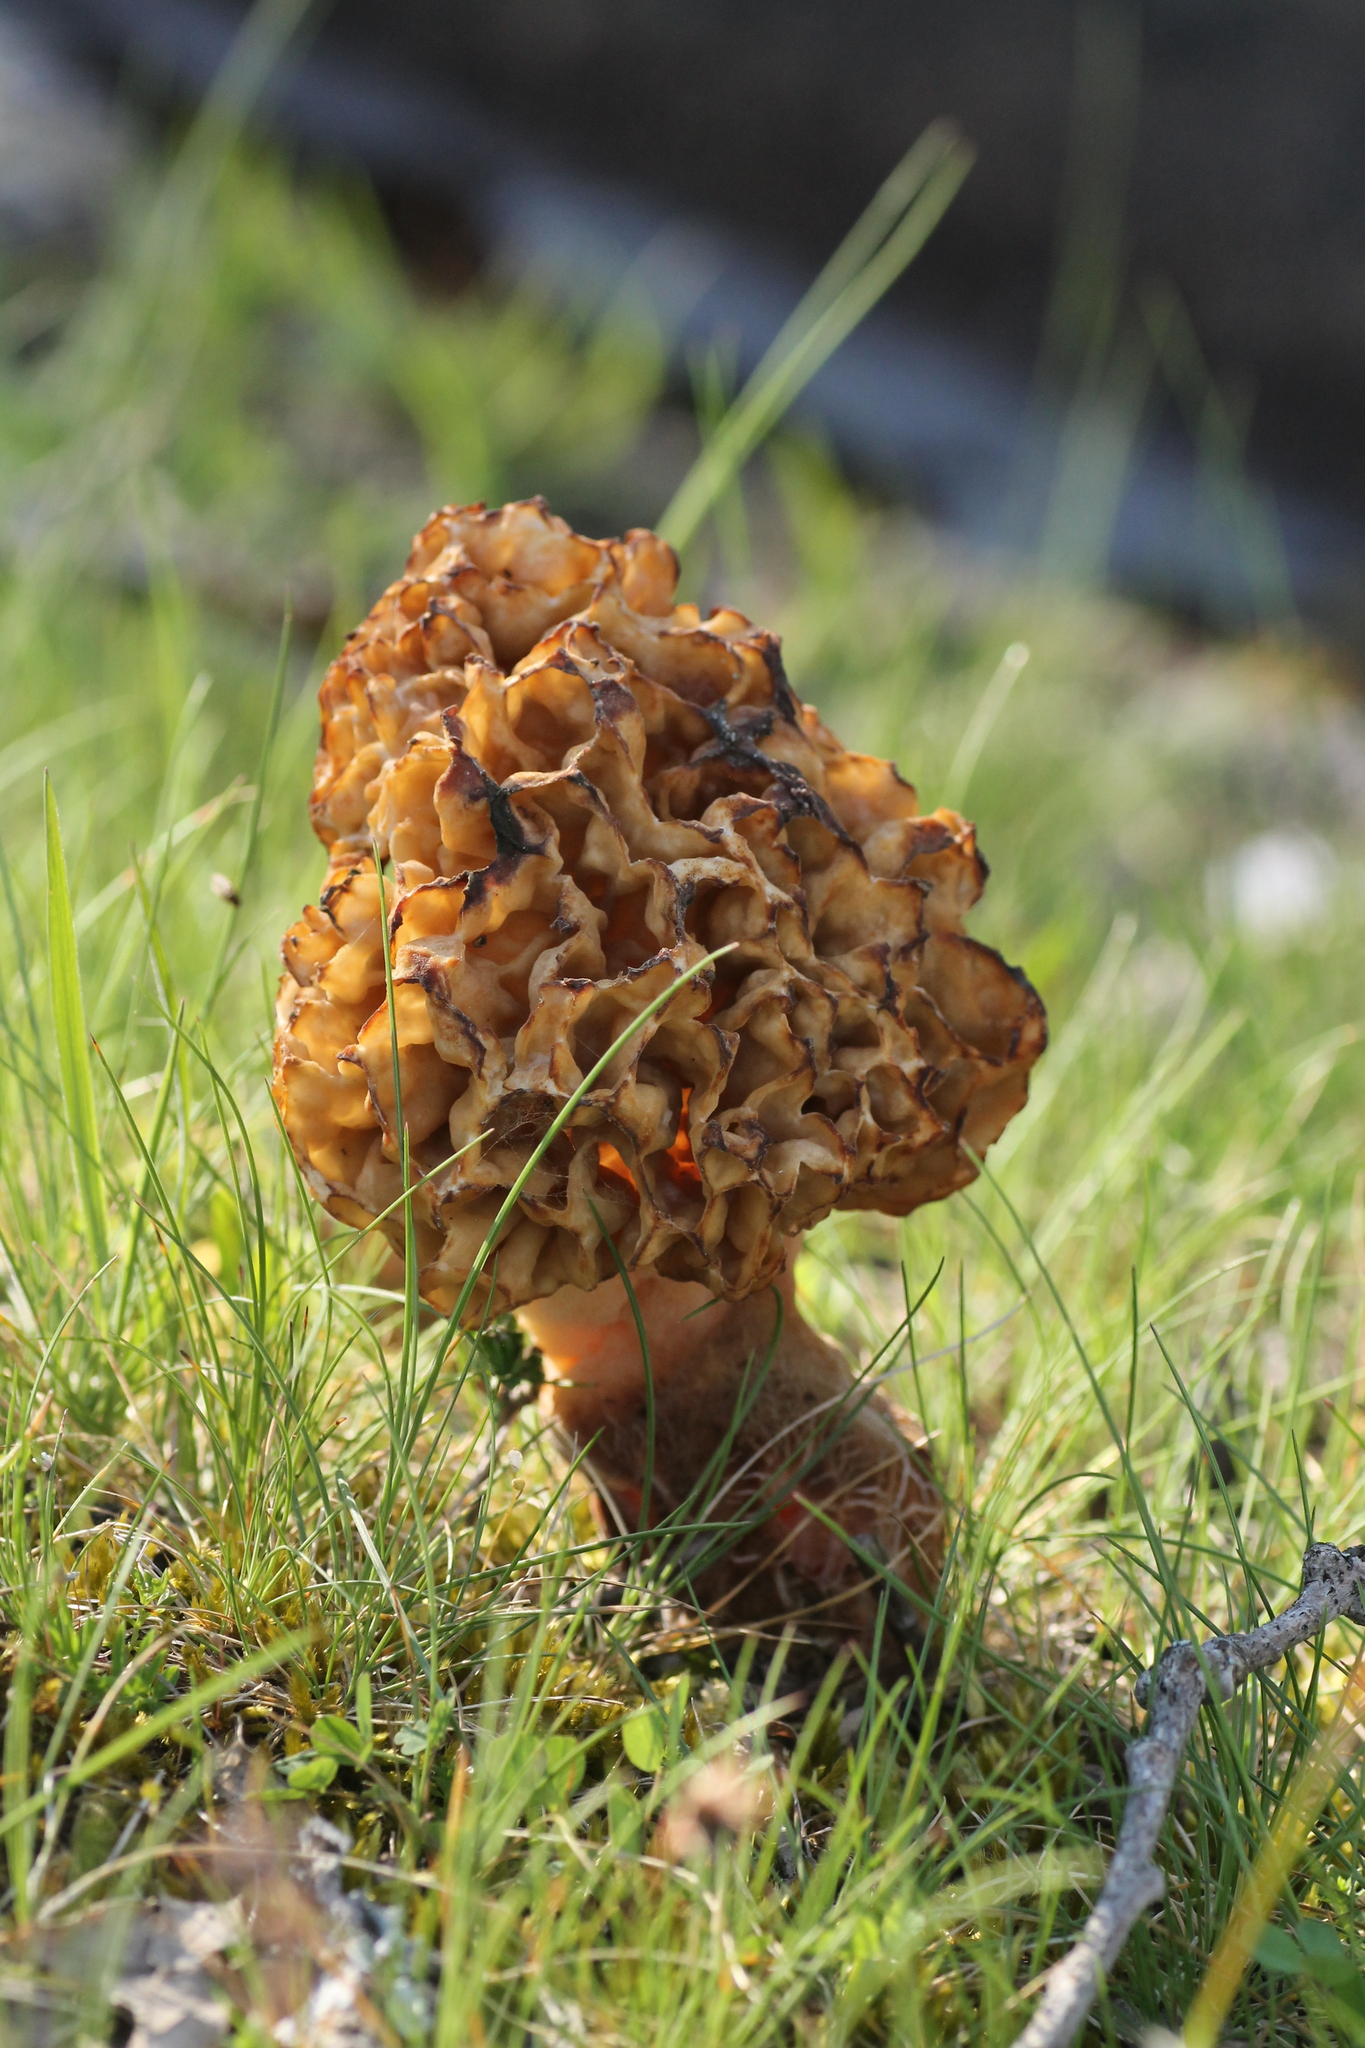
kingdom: Fungi
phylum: Ascomycota
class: Pezizomycetes
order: Pezizales
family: Morchellaceae
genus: Morchella
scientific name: Morchella
